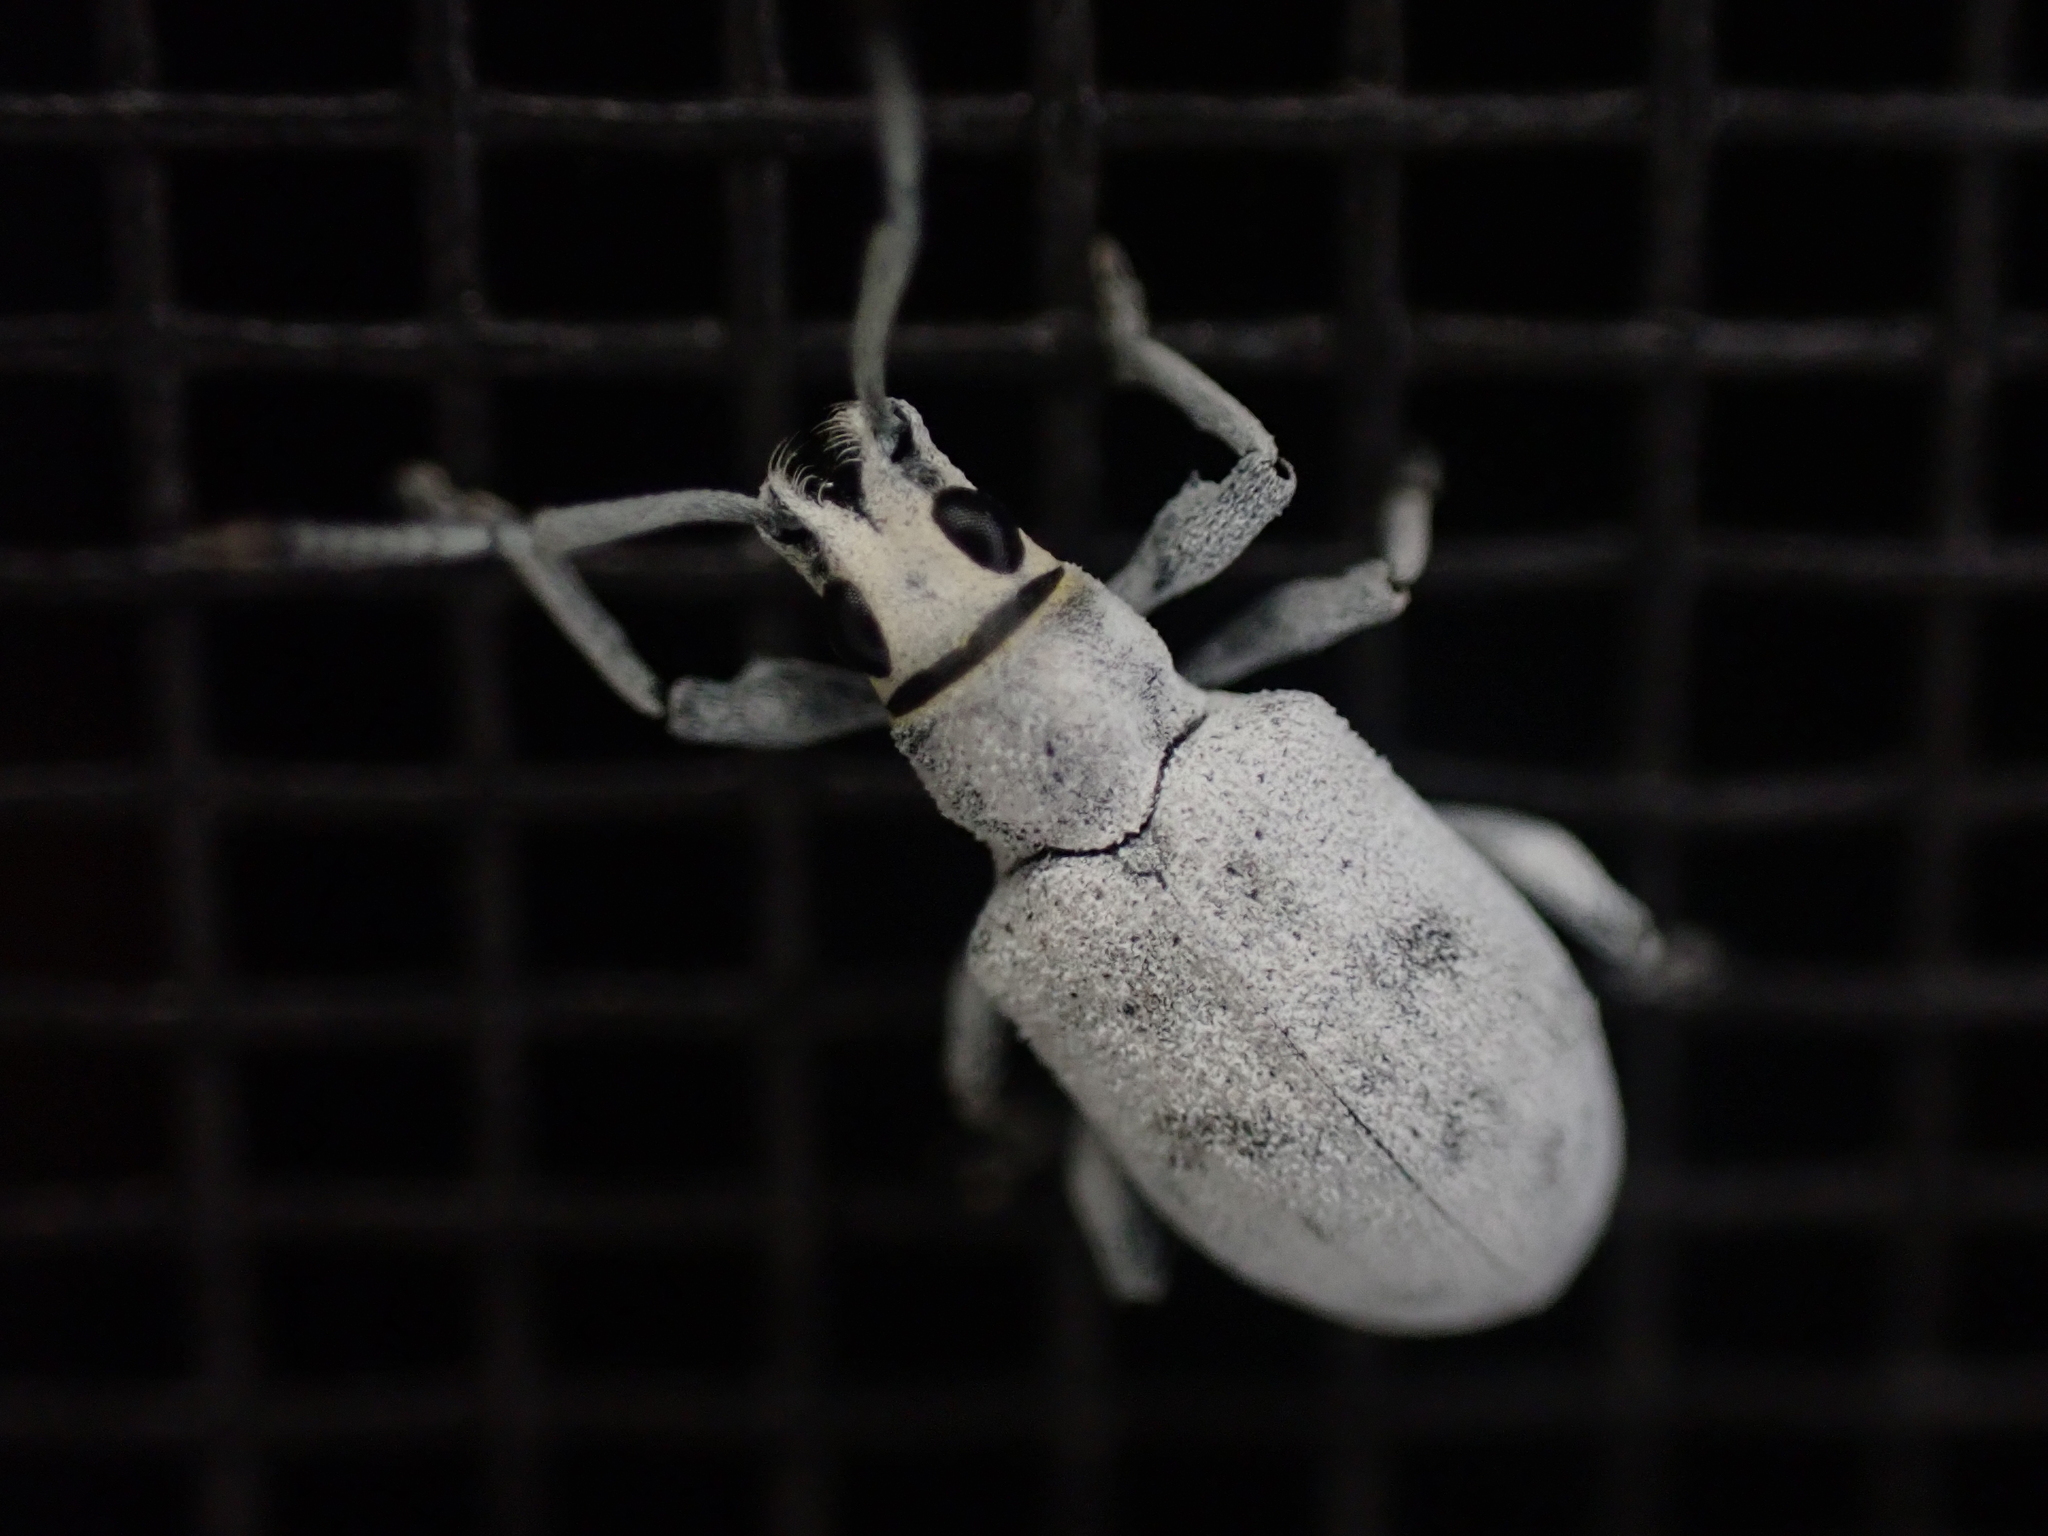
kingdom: Animalia
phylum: Arthropoda
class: Insecta
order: Coleoptera
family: Curculionidae
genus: Myllocerus
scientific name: Myllocerus undecimpustulatus
